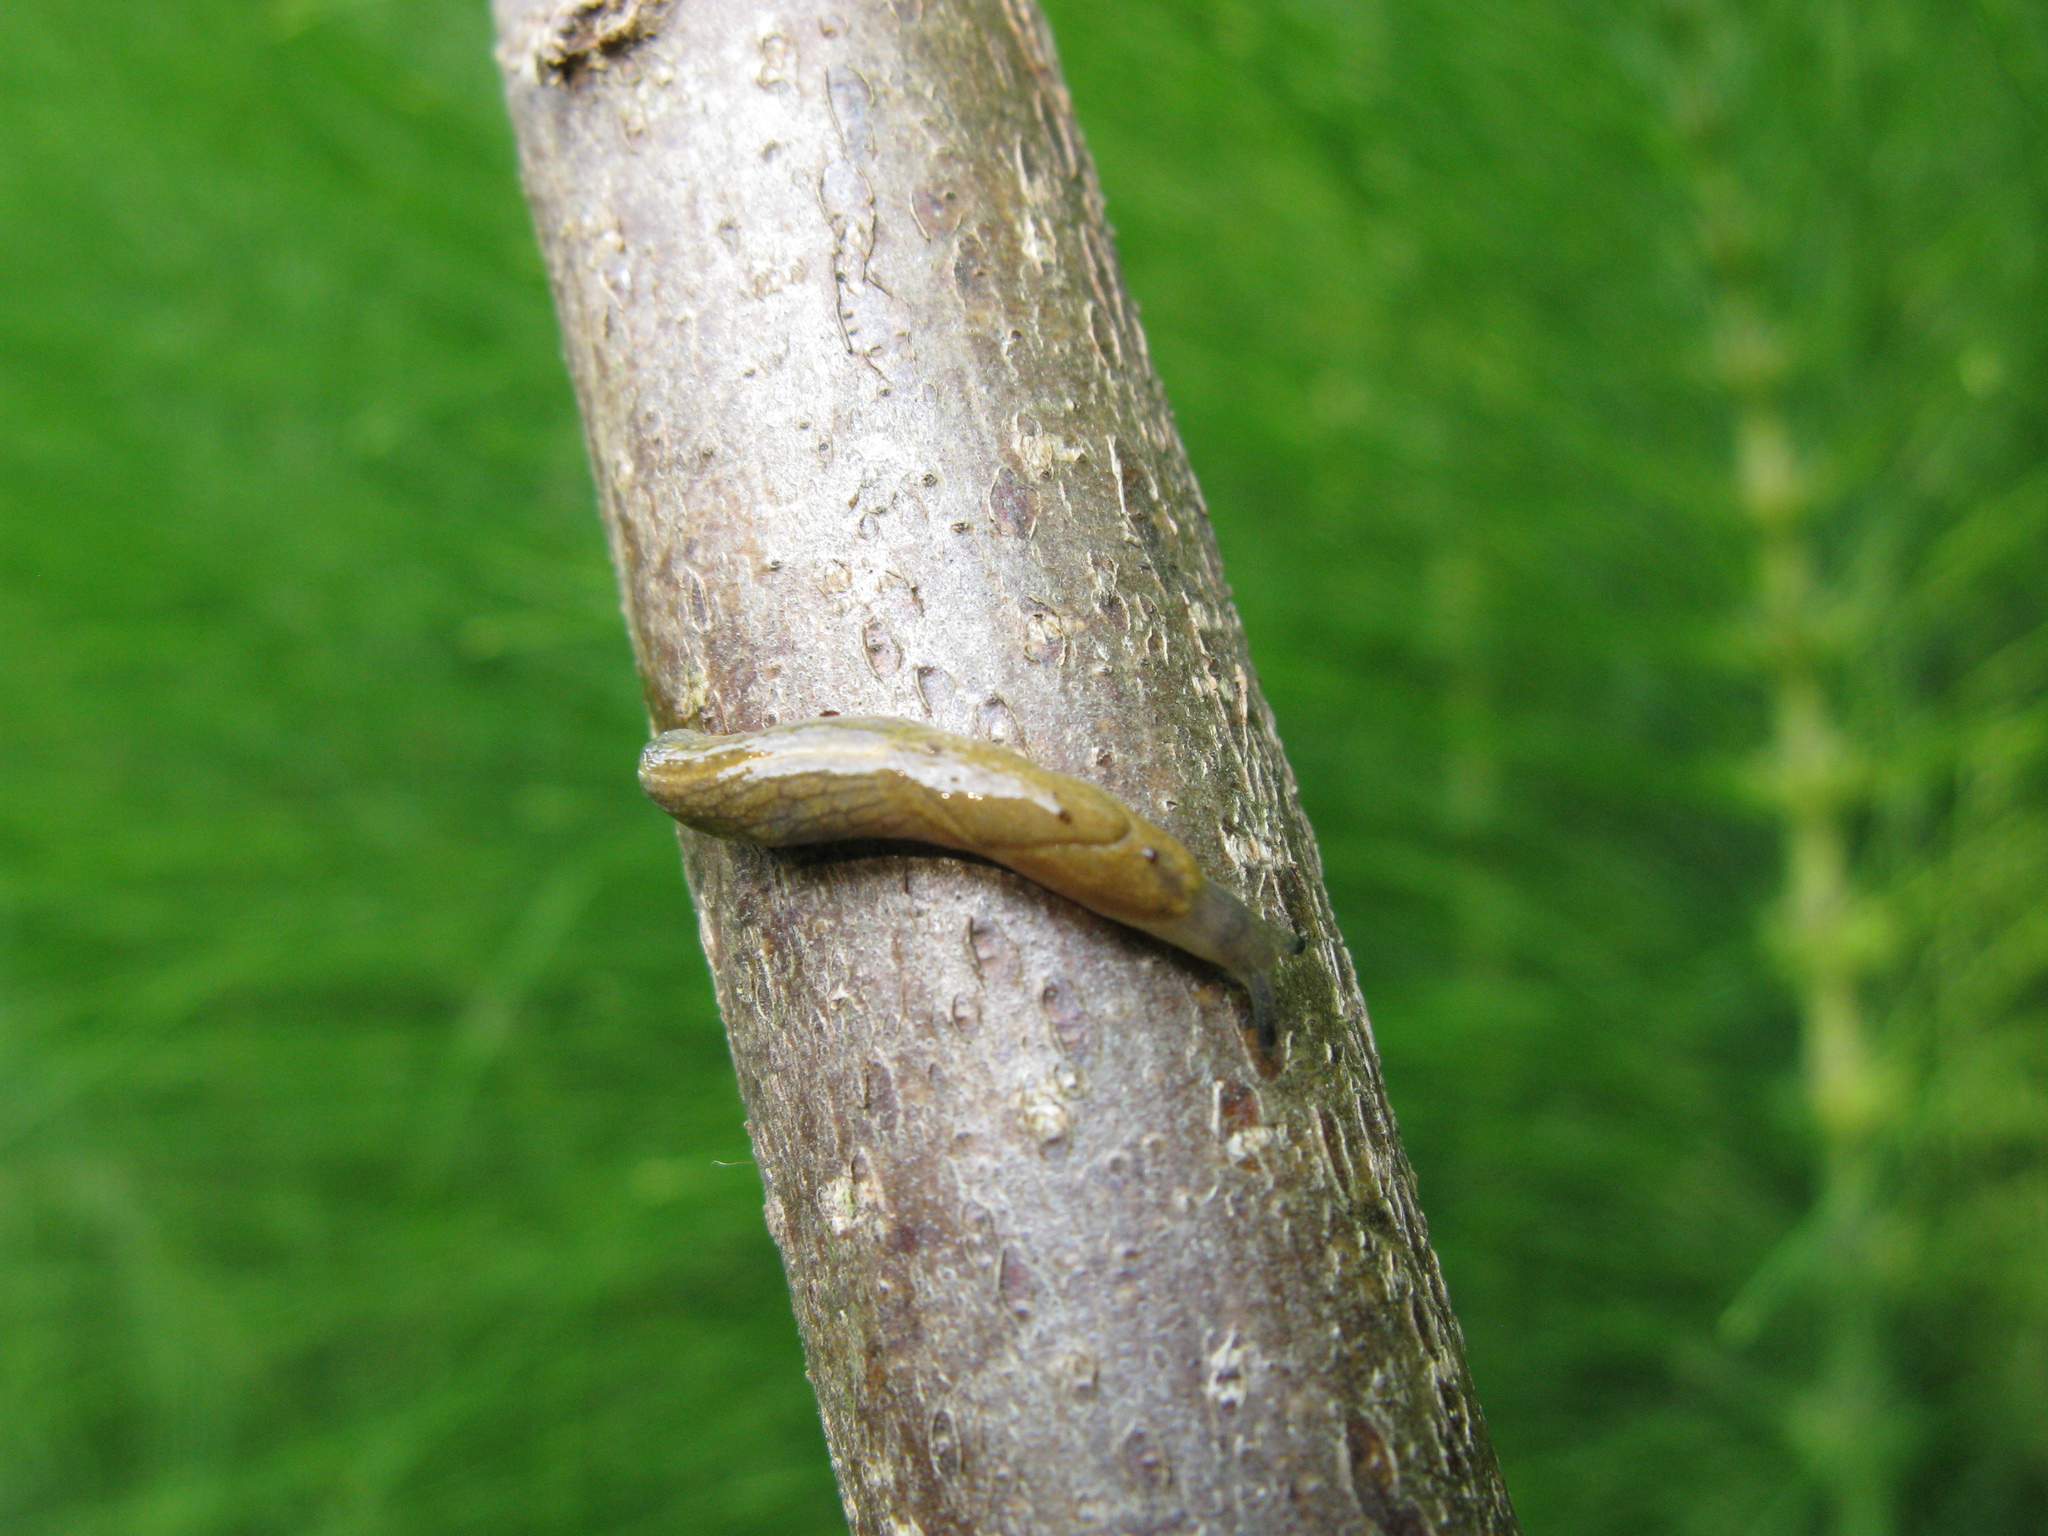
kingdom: Animalia
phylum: Mollusca
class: Gastropoda
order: Stylommatophora
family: Milacidae
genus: Tandonia
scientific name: Tandonia cristata
